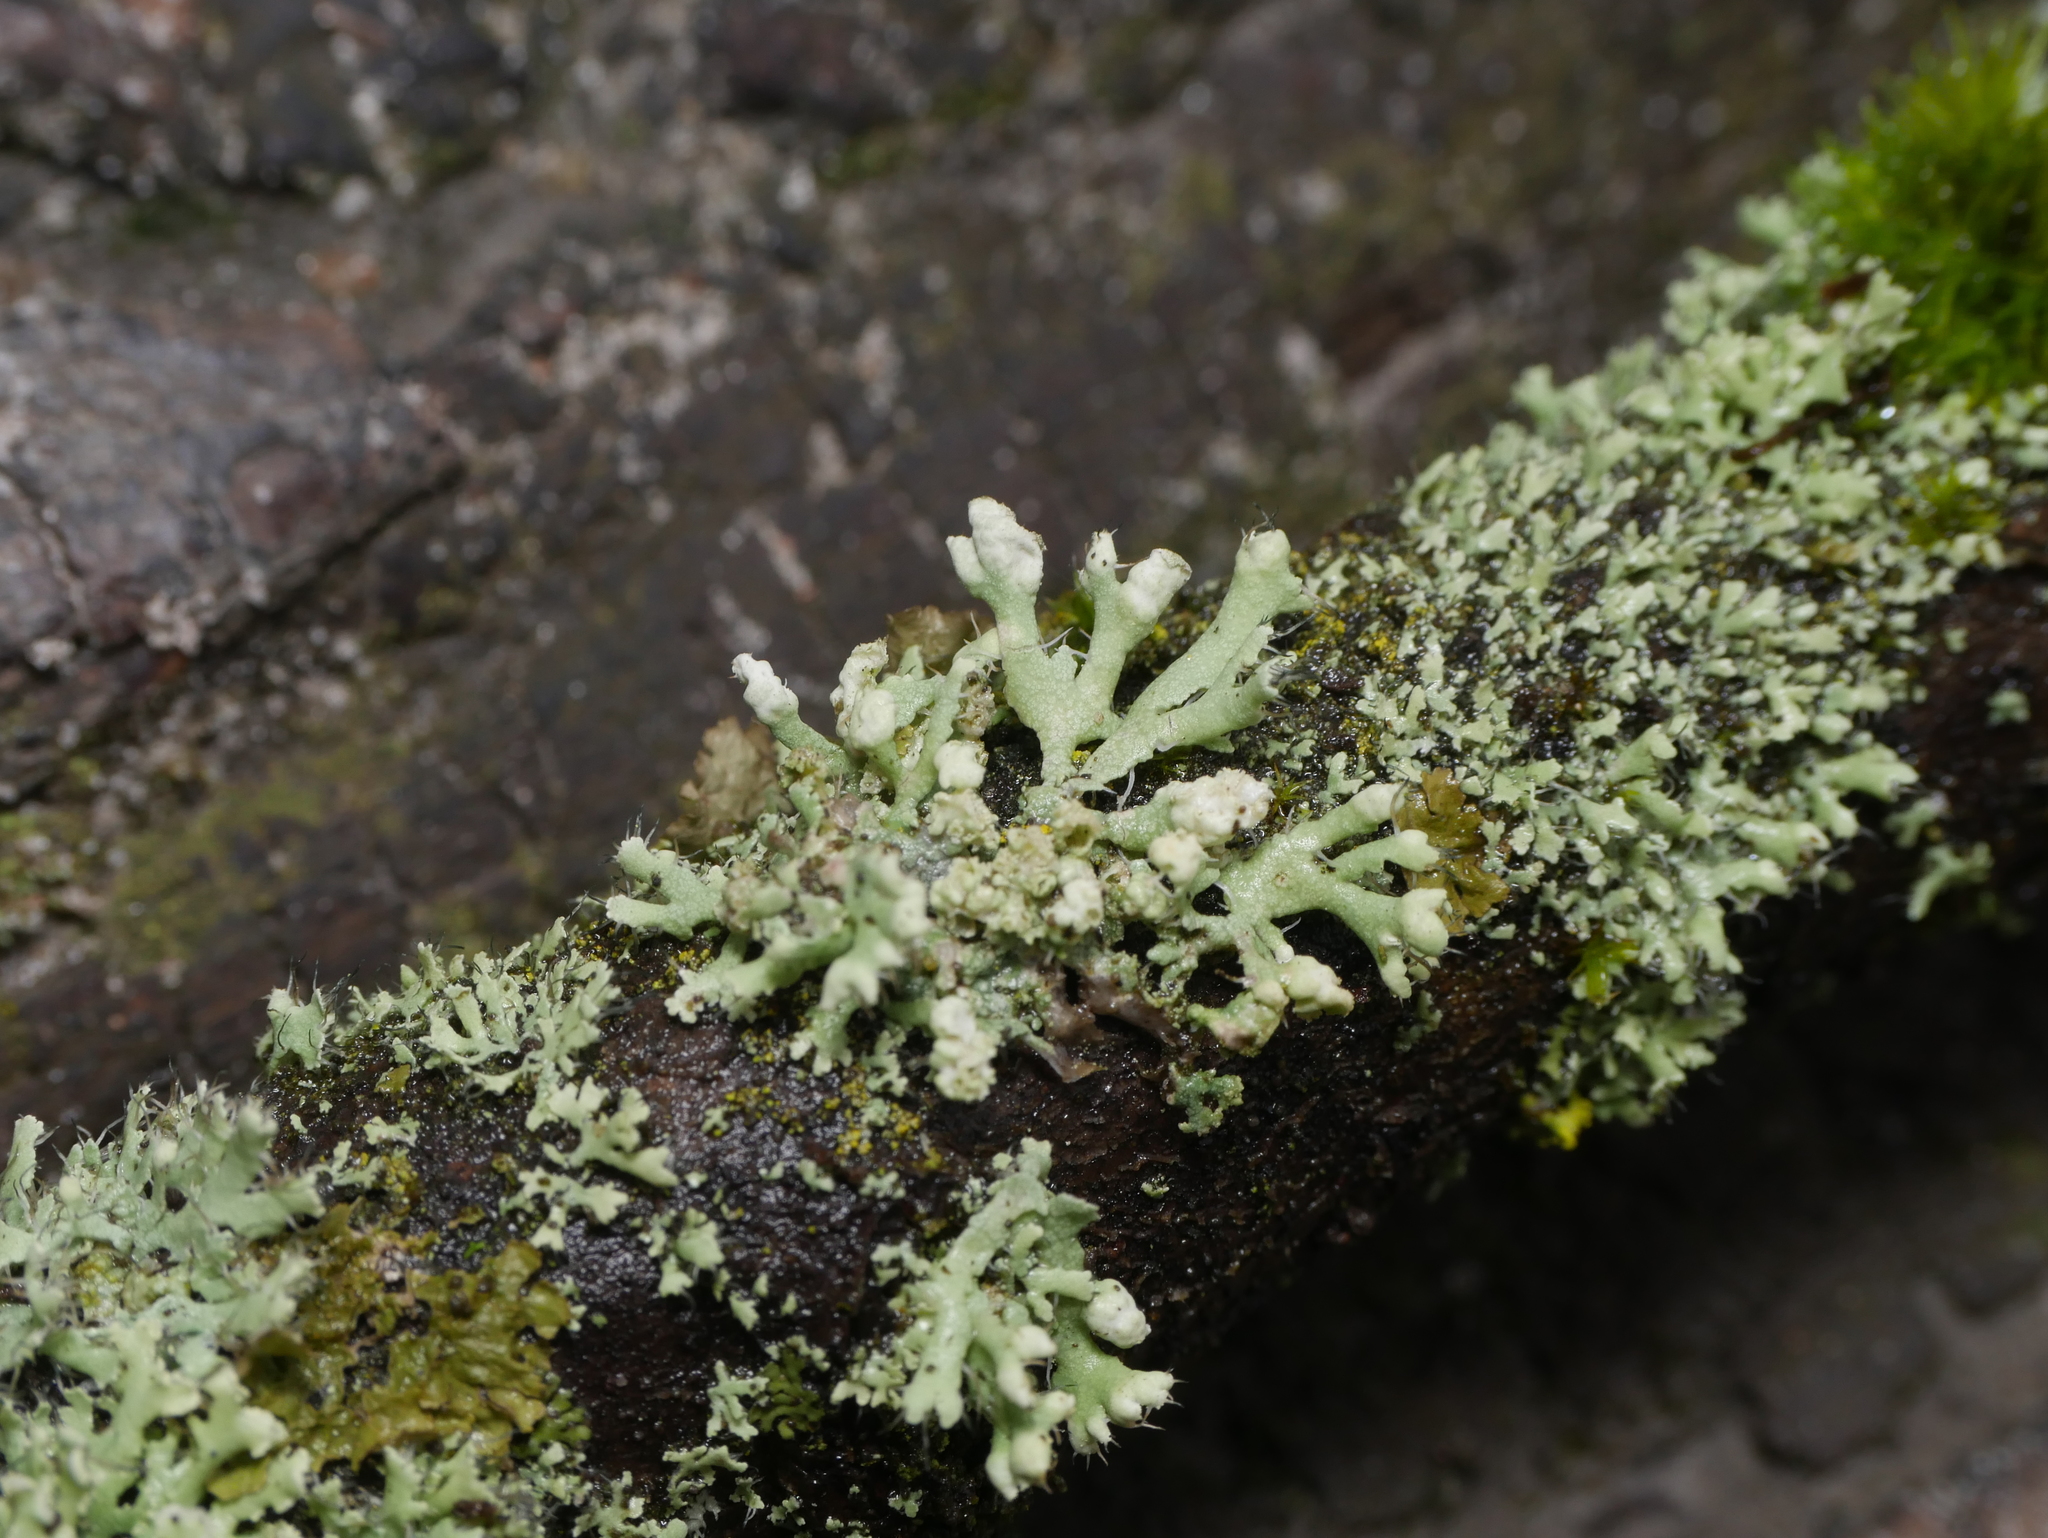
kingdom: Fungi
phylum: Ascomycota
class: Lecanoromycetes
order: Caliciales
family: Physciaceae
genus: Physcia
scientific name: Physcia adscendens
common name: Hooded rosette lichen
